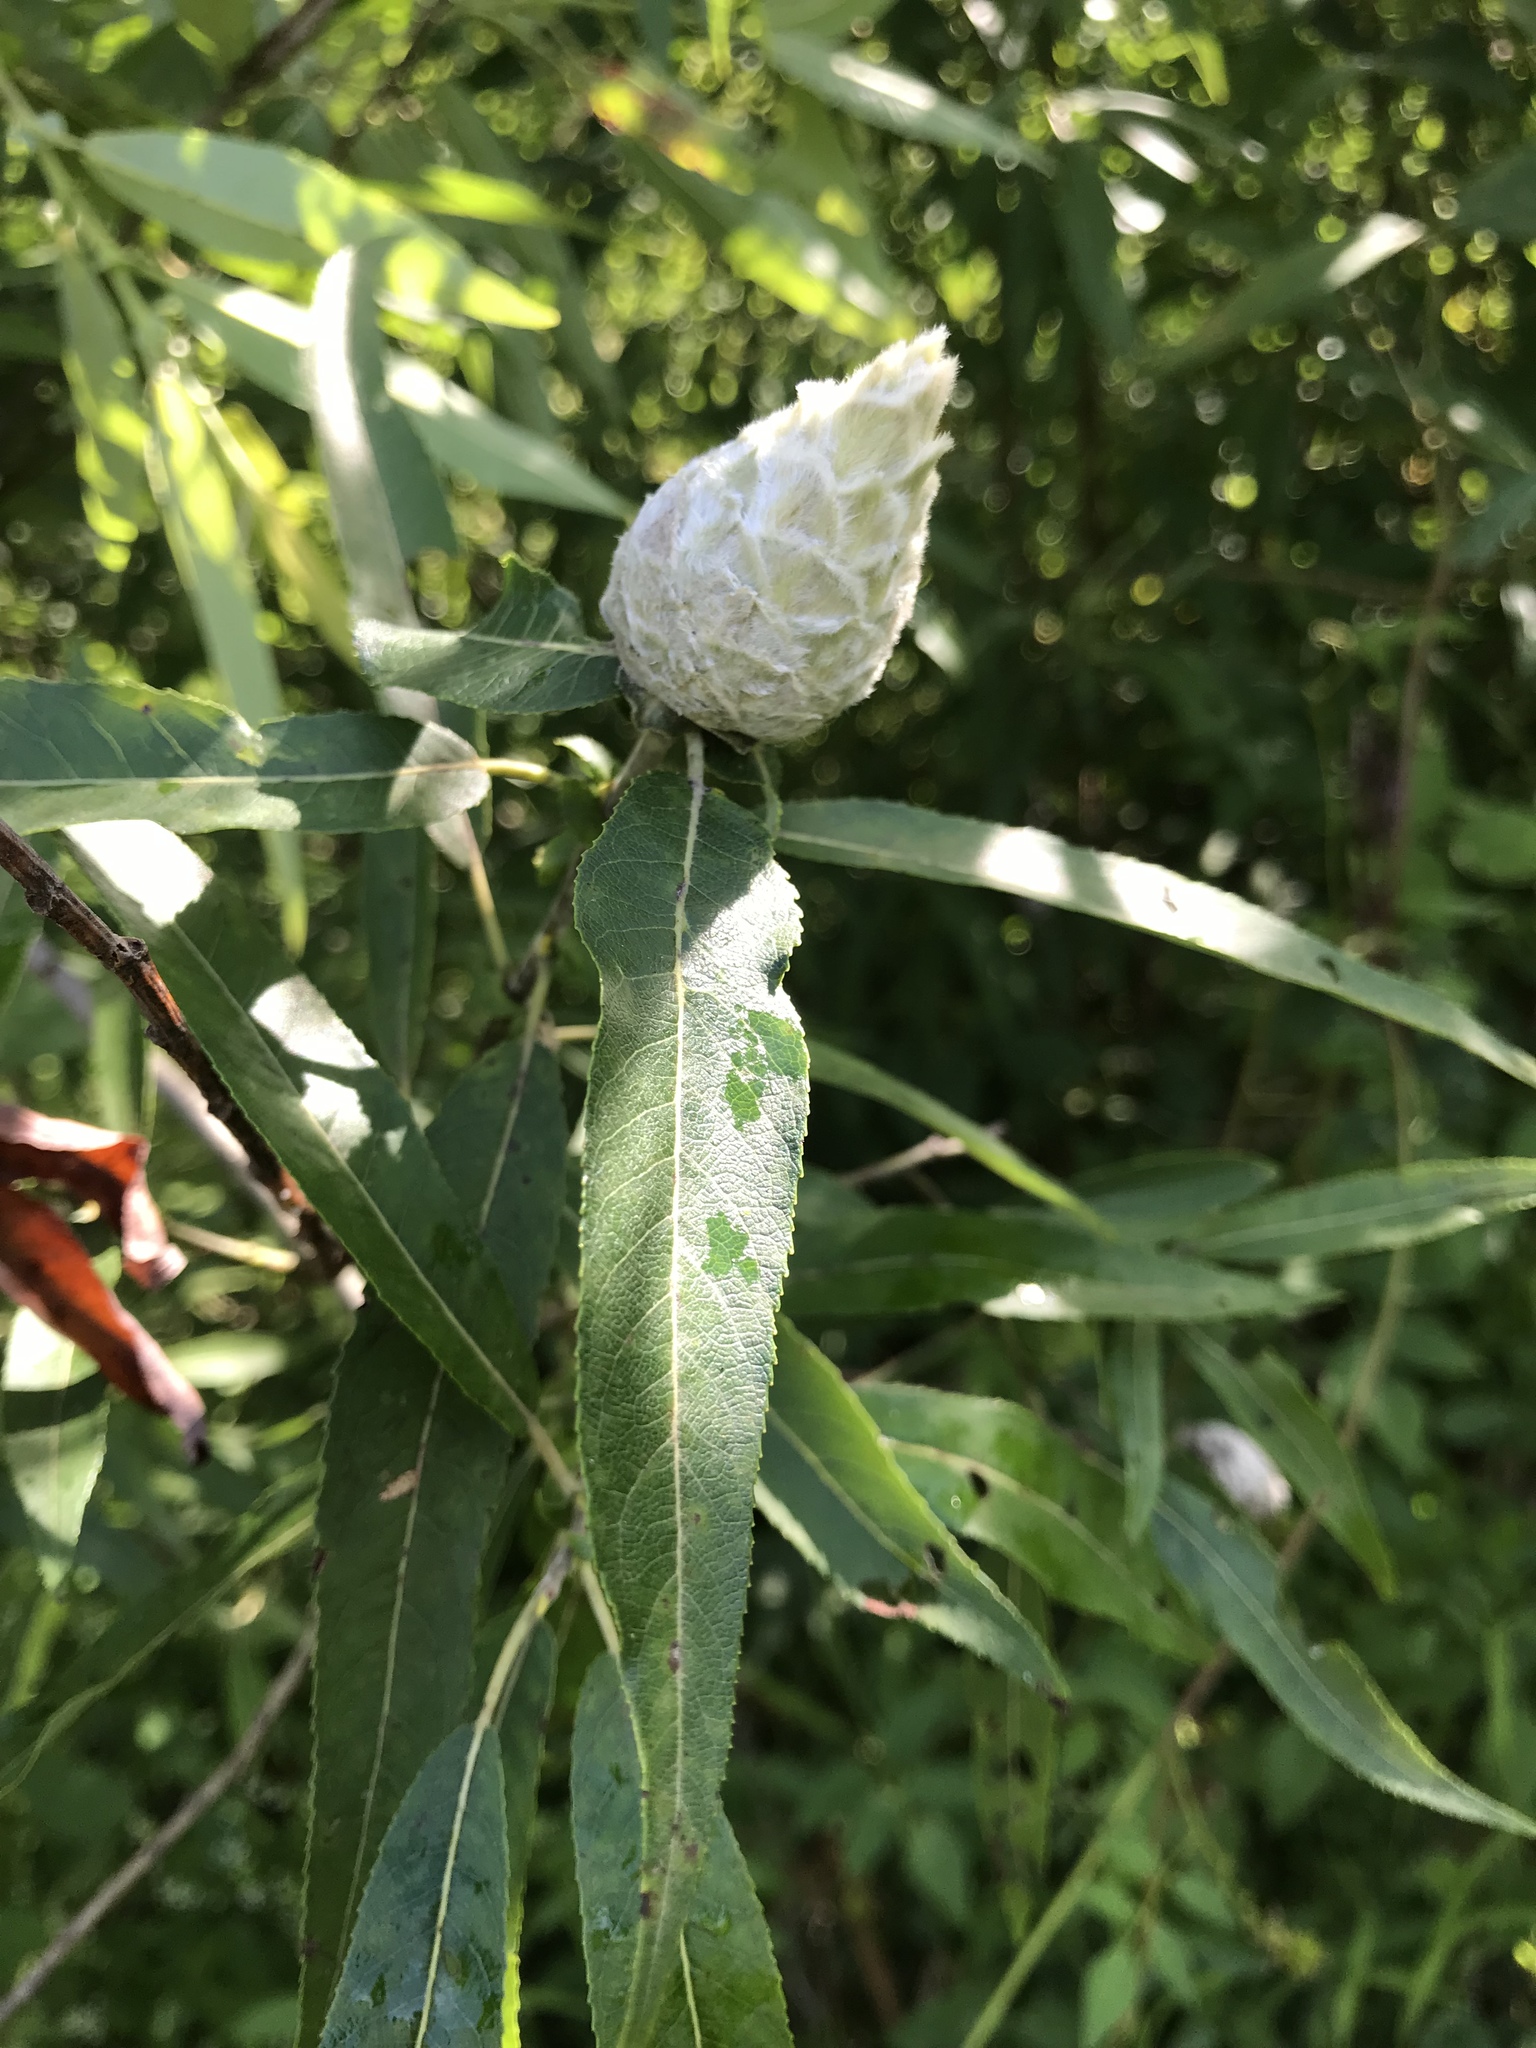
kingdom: Animalia
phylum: Arthropoda
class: Insecta
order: Diptera
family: Cecidomyiidae
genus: Rabdophaga
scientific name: Rabdophaga strobiloides
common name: Willow pinecone gall midge
